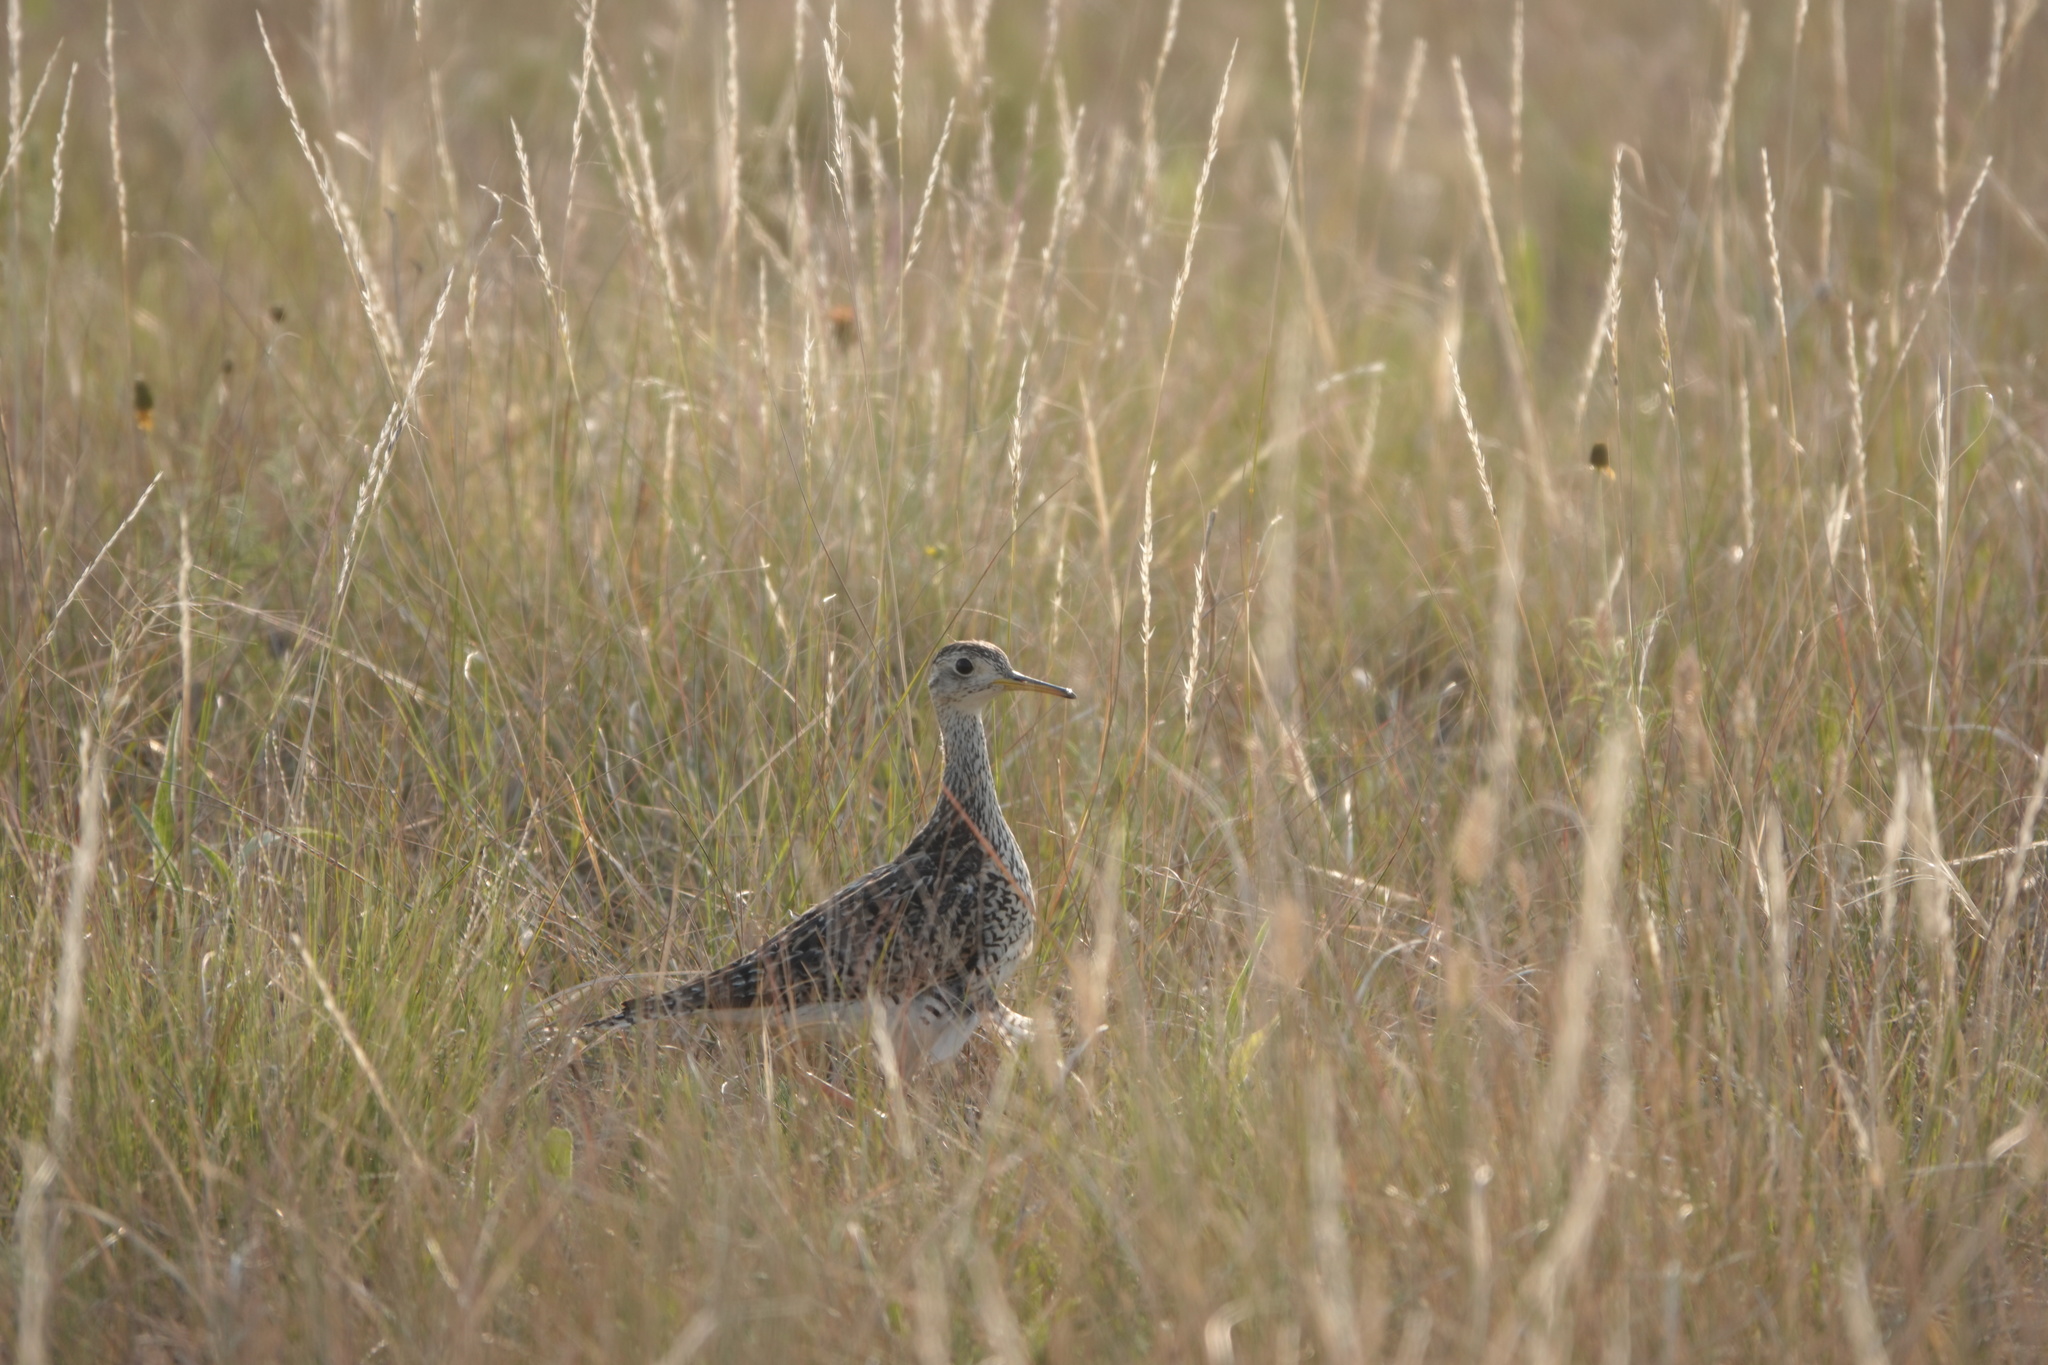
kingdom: Animalia
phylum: Chordata
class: Aves
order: Charadriiformes
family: Scolopacidae
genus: Bartramia
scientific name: Bartramia longicauda
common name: Upland sandpiper
